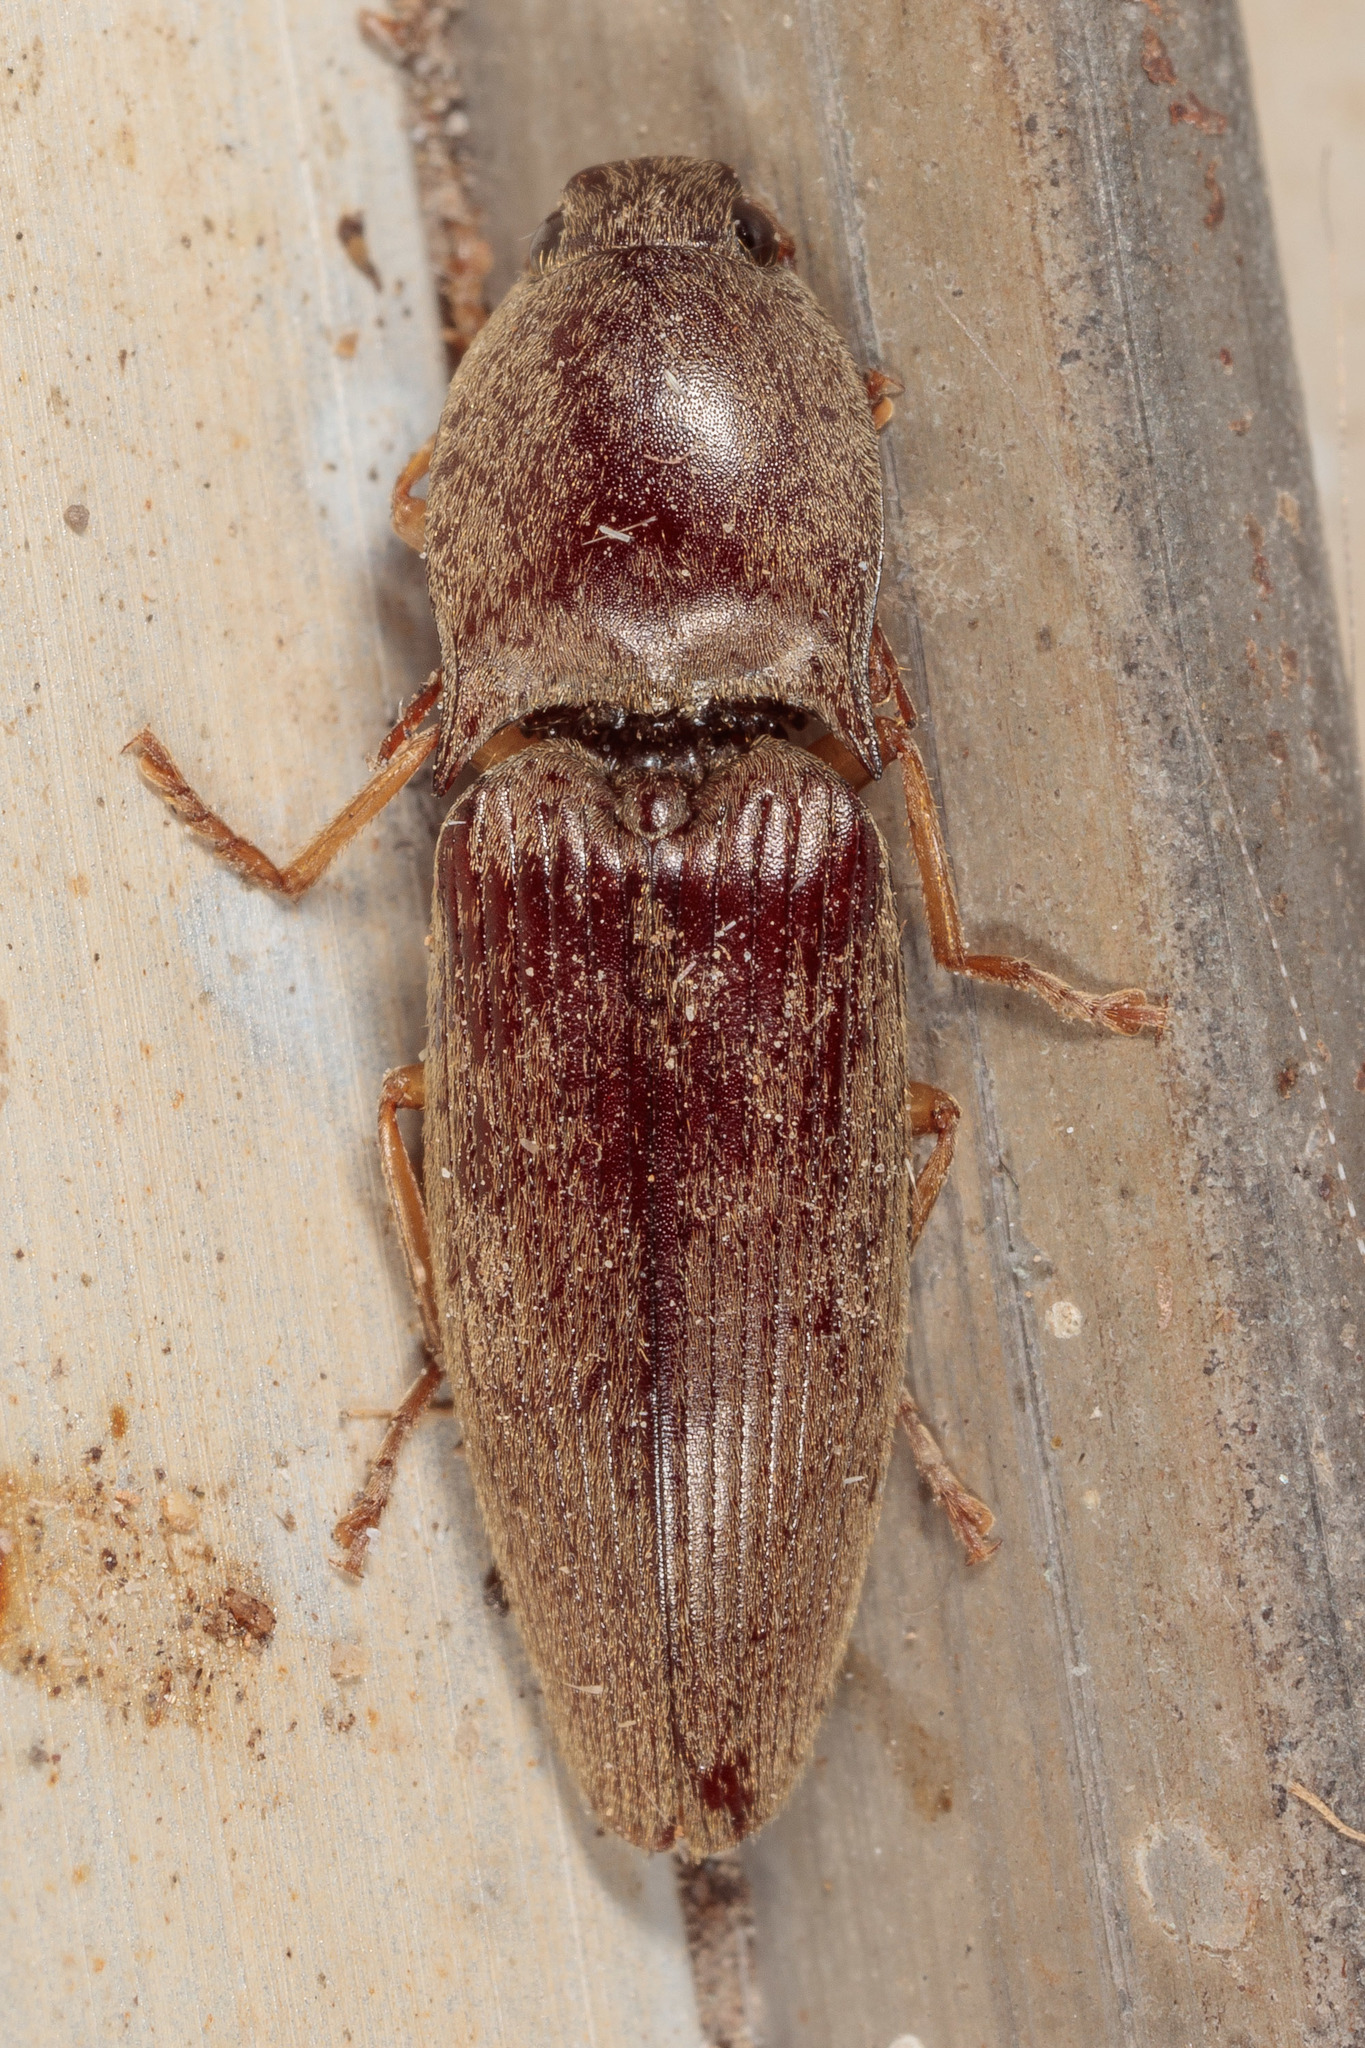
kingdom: Animalia
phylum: Arthropoda
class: Insecta
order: Coleoptera
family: Elateridae
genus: Monocrepidius
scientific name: Monocrepidius lividus
